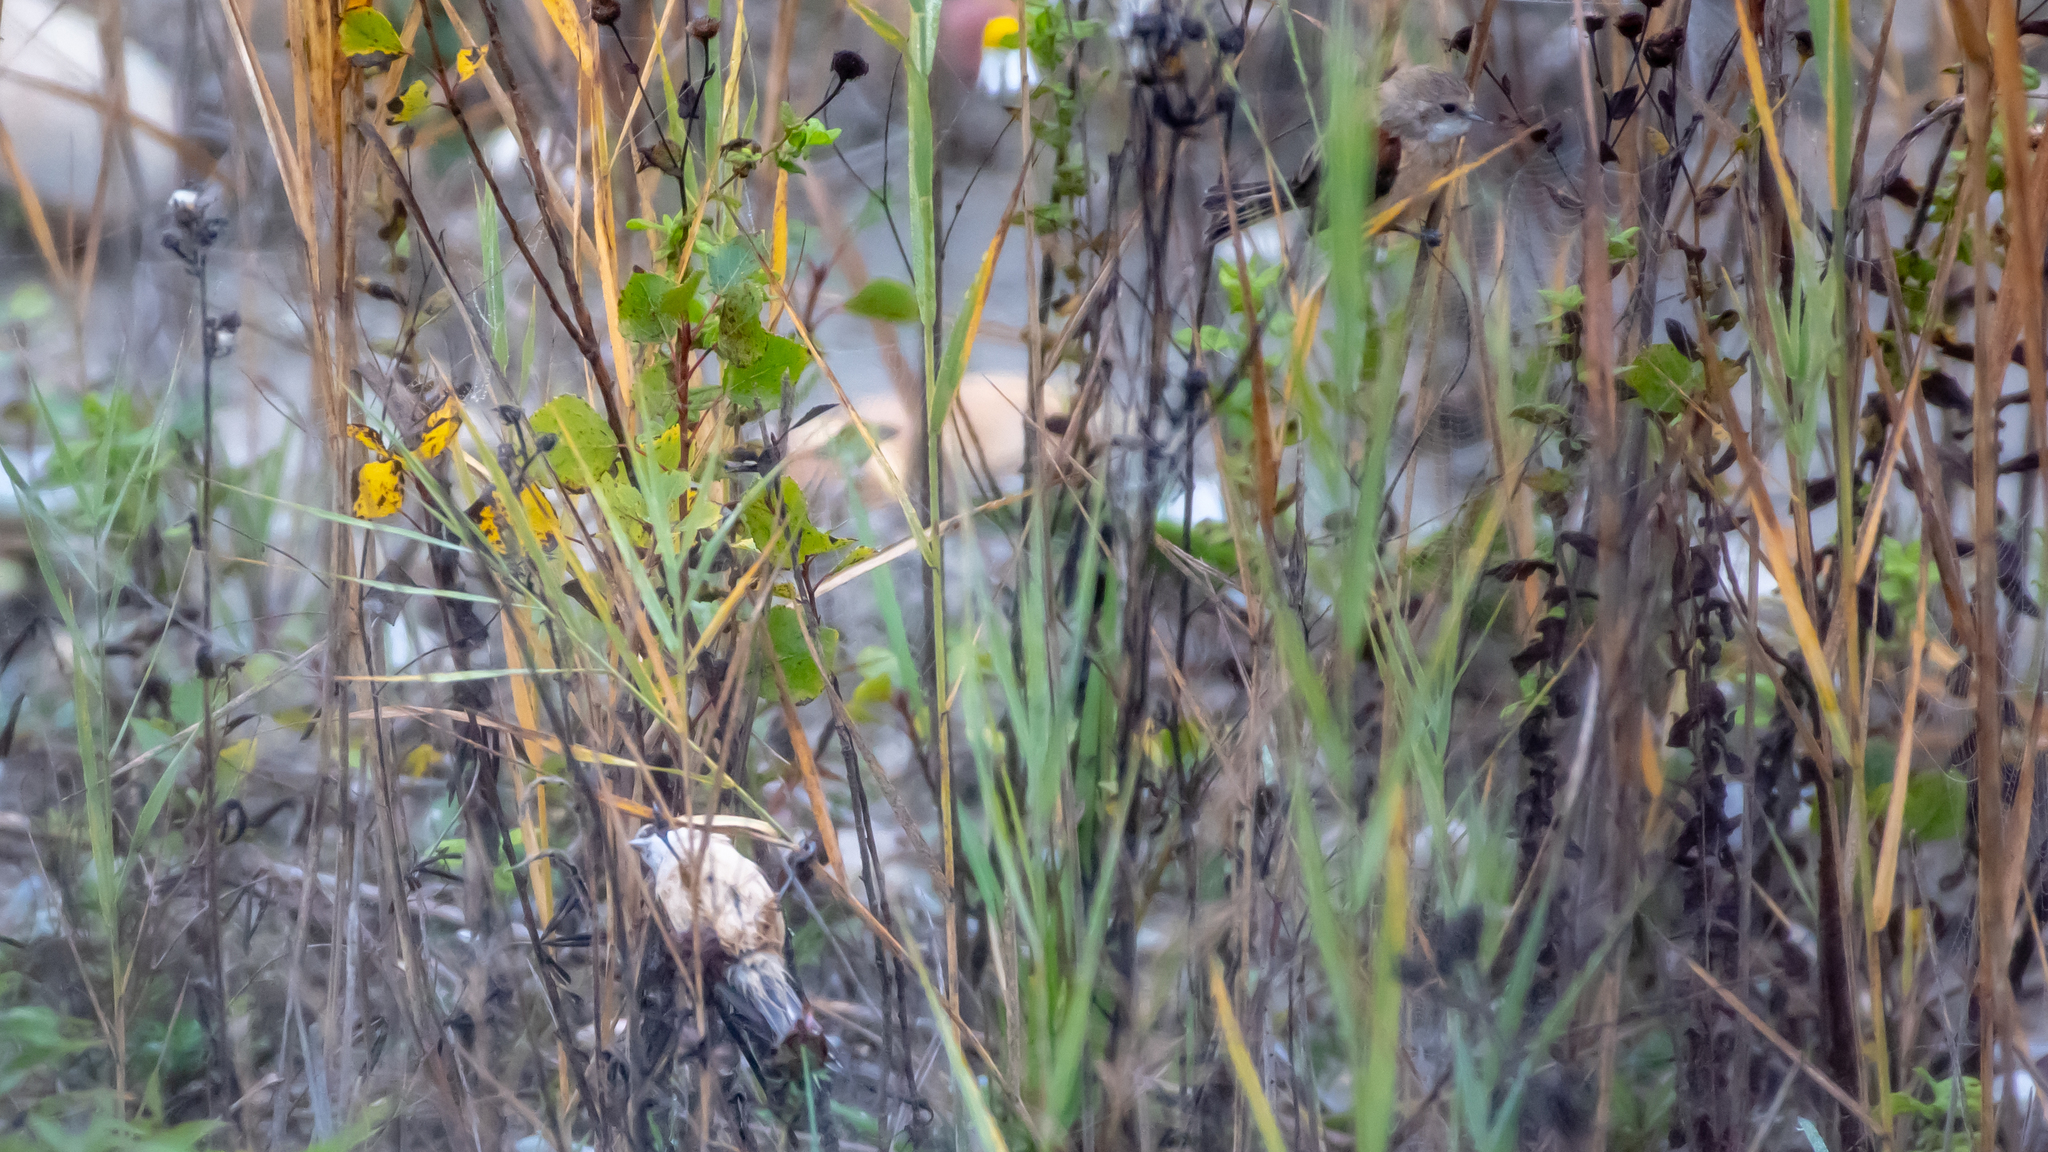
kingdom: Animalia
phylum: Chordata
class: Aves
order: Passeriformes
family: Remizidae
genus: Remiz
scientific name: Remiz pendulinus
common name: Eurasian penduline tit
